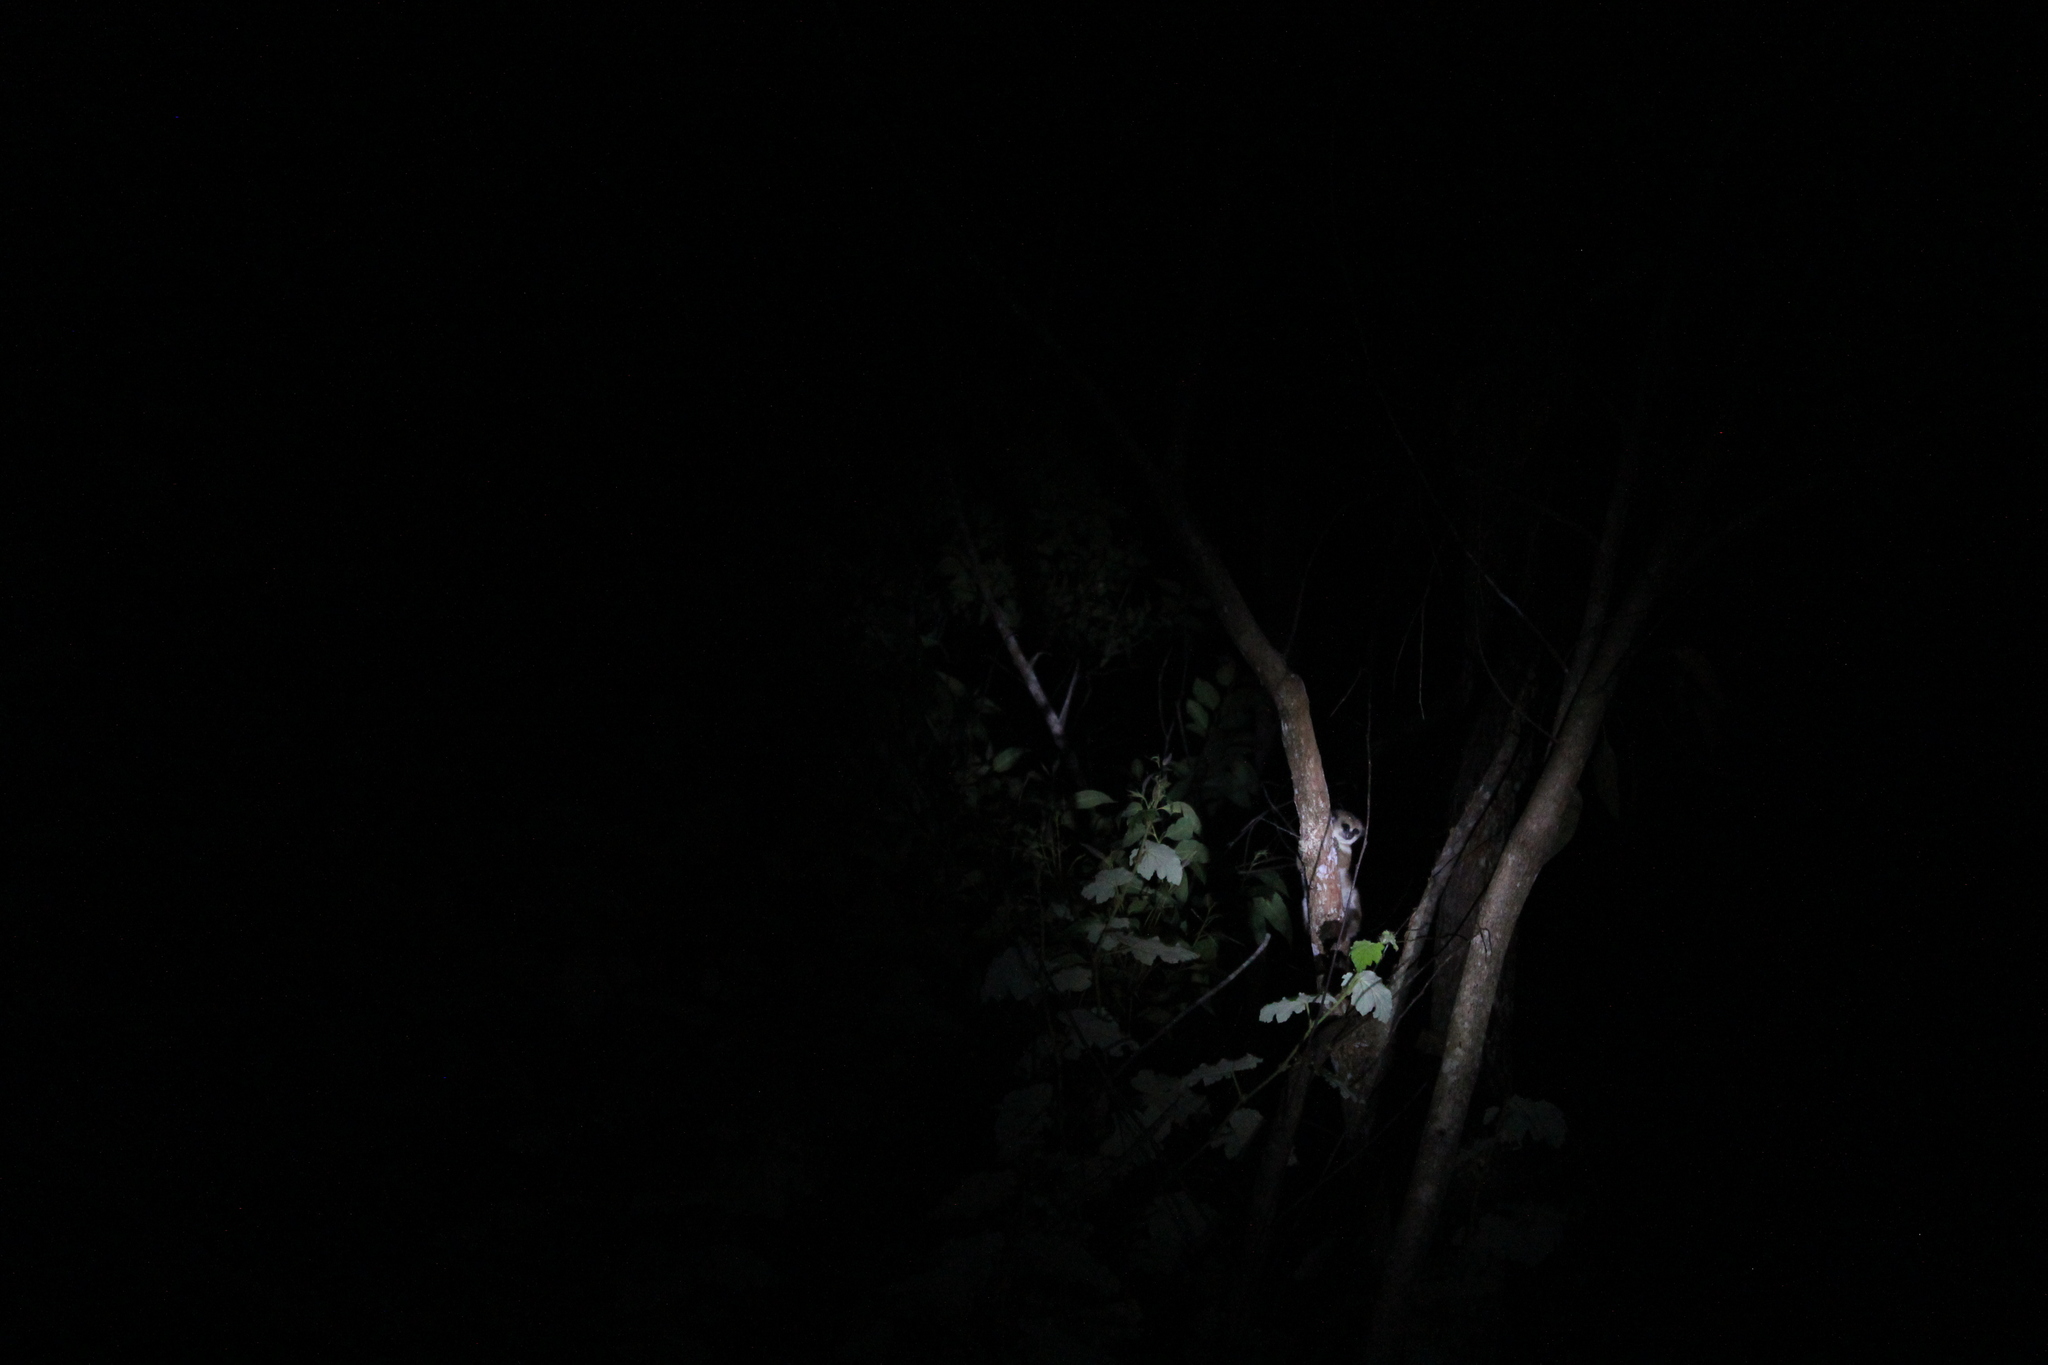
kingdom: Animalia
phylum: Chordata
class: Mammalia
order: Primates
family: Cheirogaleidae
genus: Cheirogaleus
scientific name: Cheirogaleus crossleyi
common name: Furry-eared dwarf lemur
